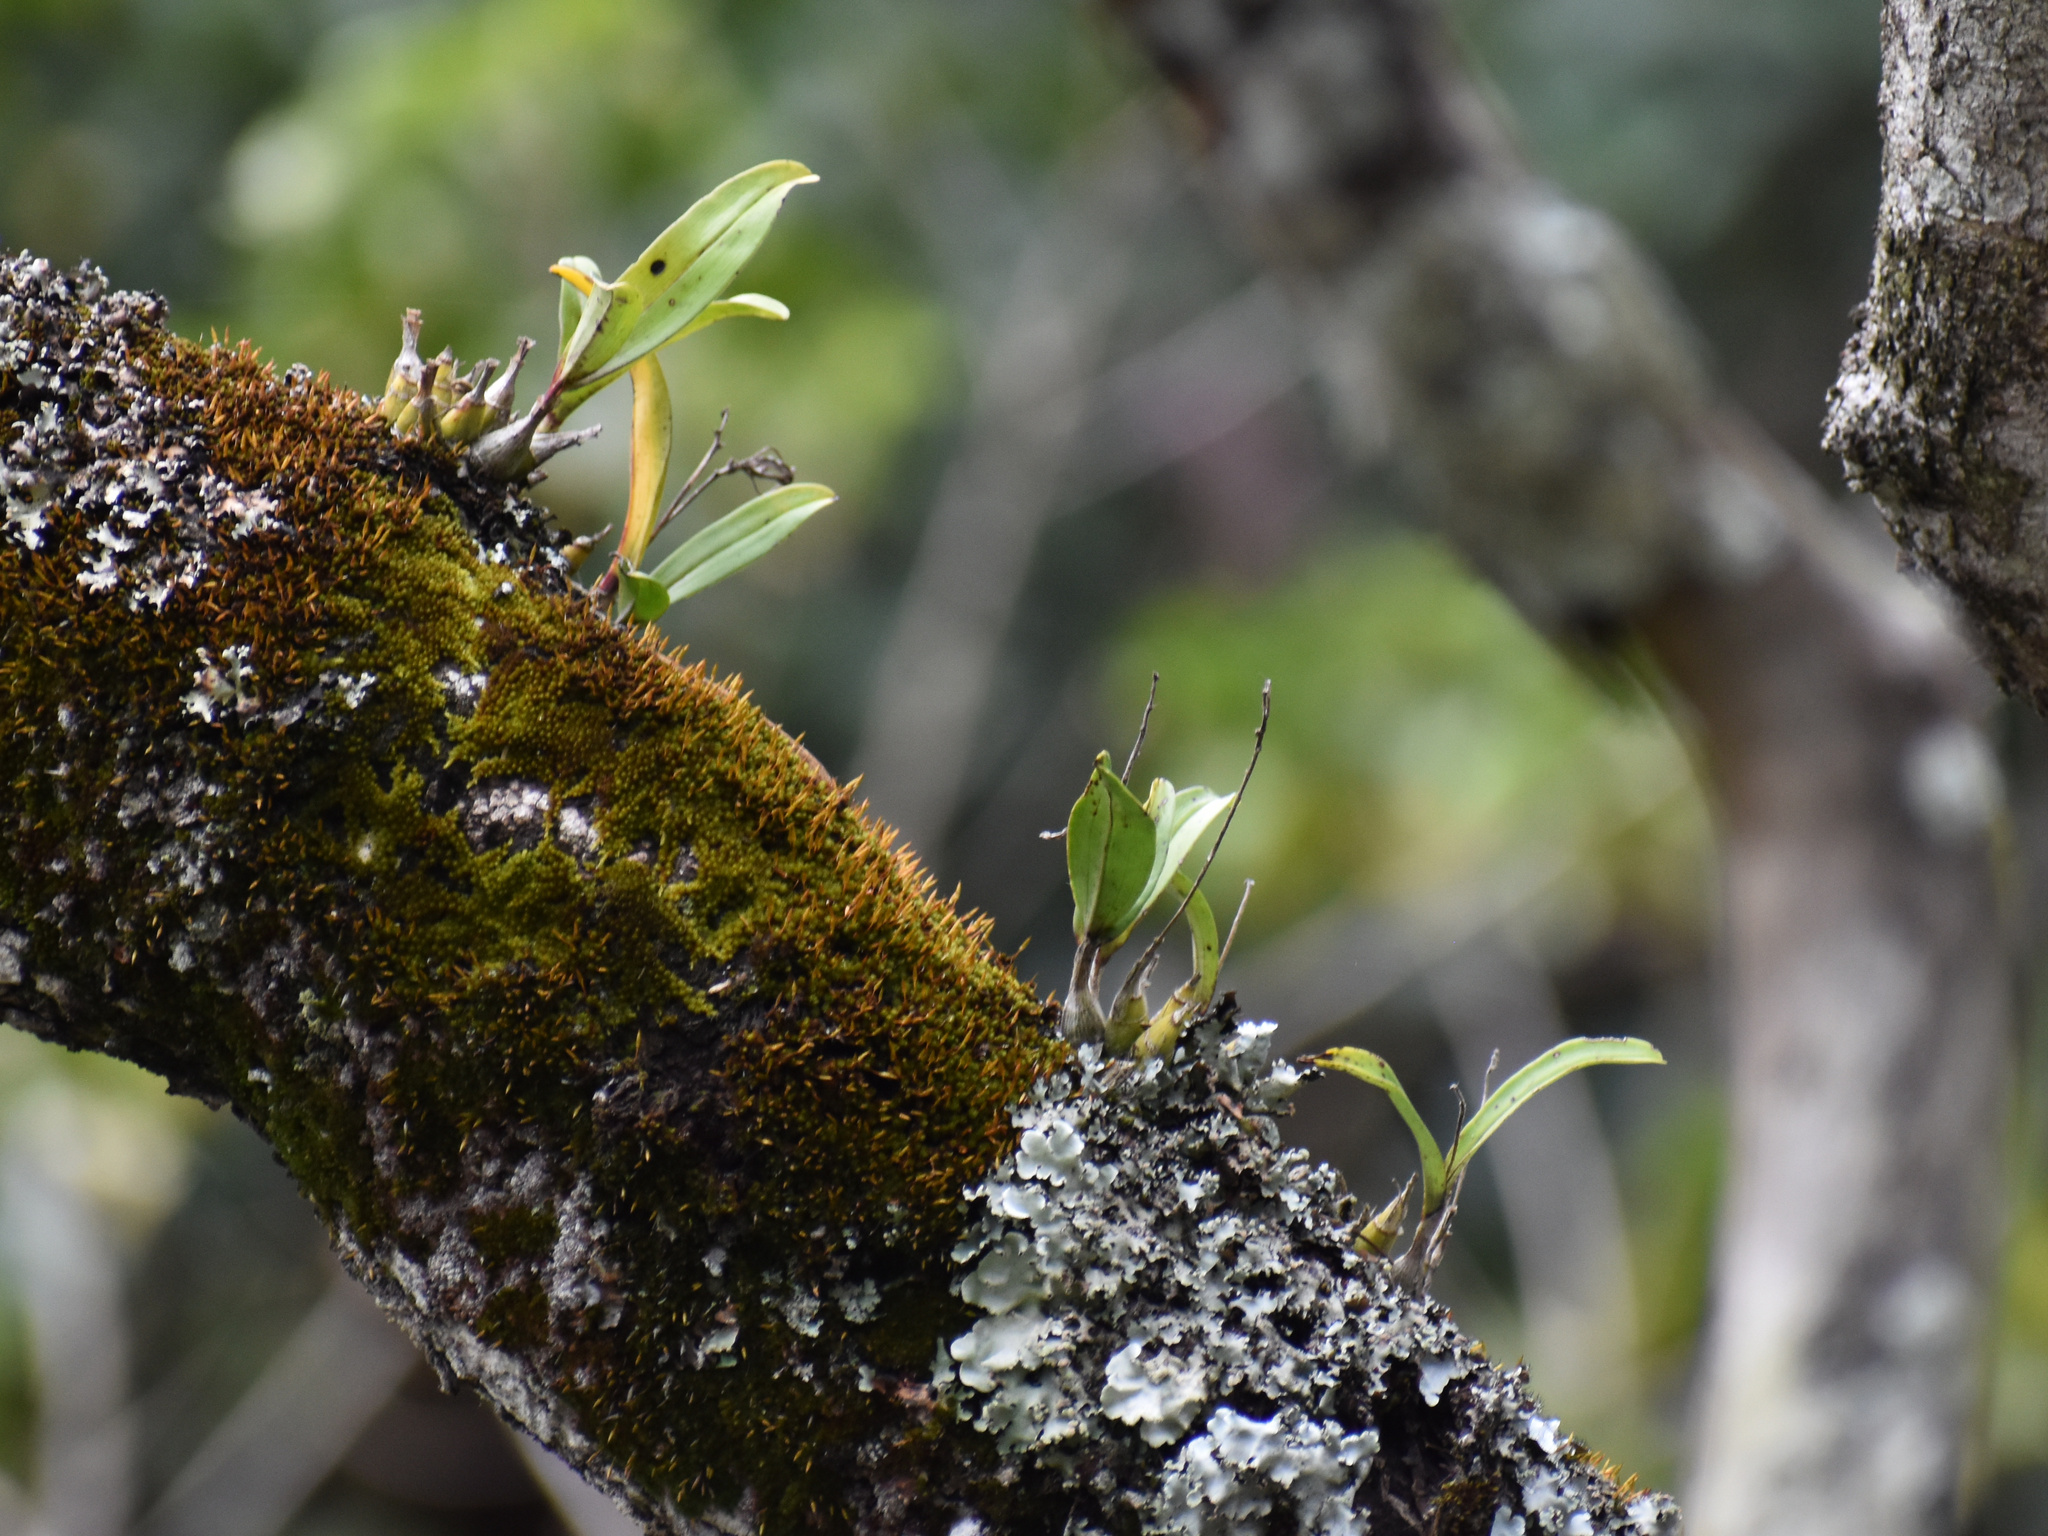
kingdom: Plantae
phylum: Tracheophyta
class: Liliopsida
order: Asparagales
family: Orchidaceae
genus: Polystachya
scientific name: Polystachya sandersonii
